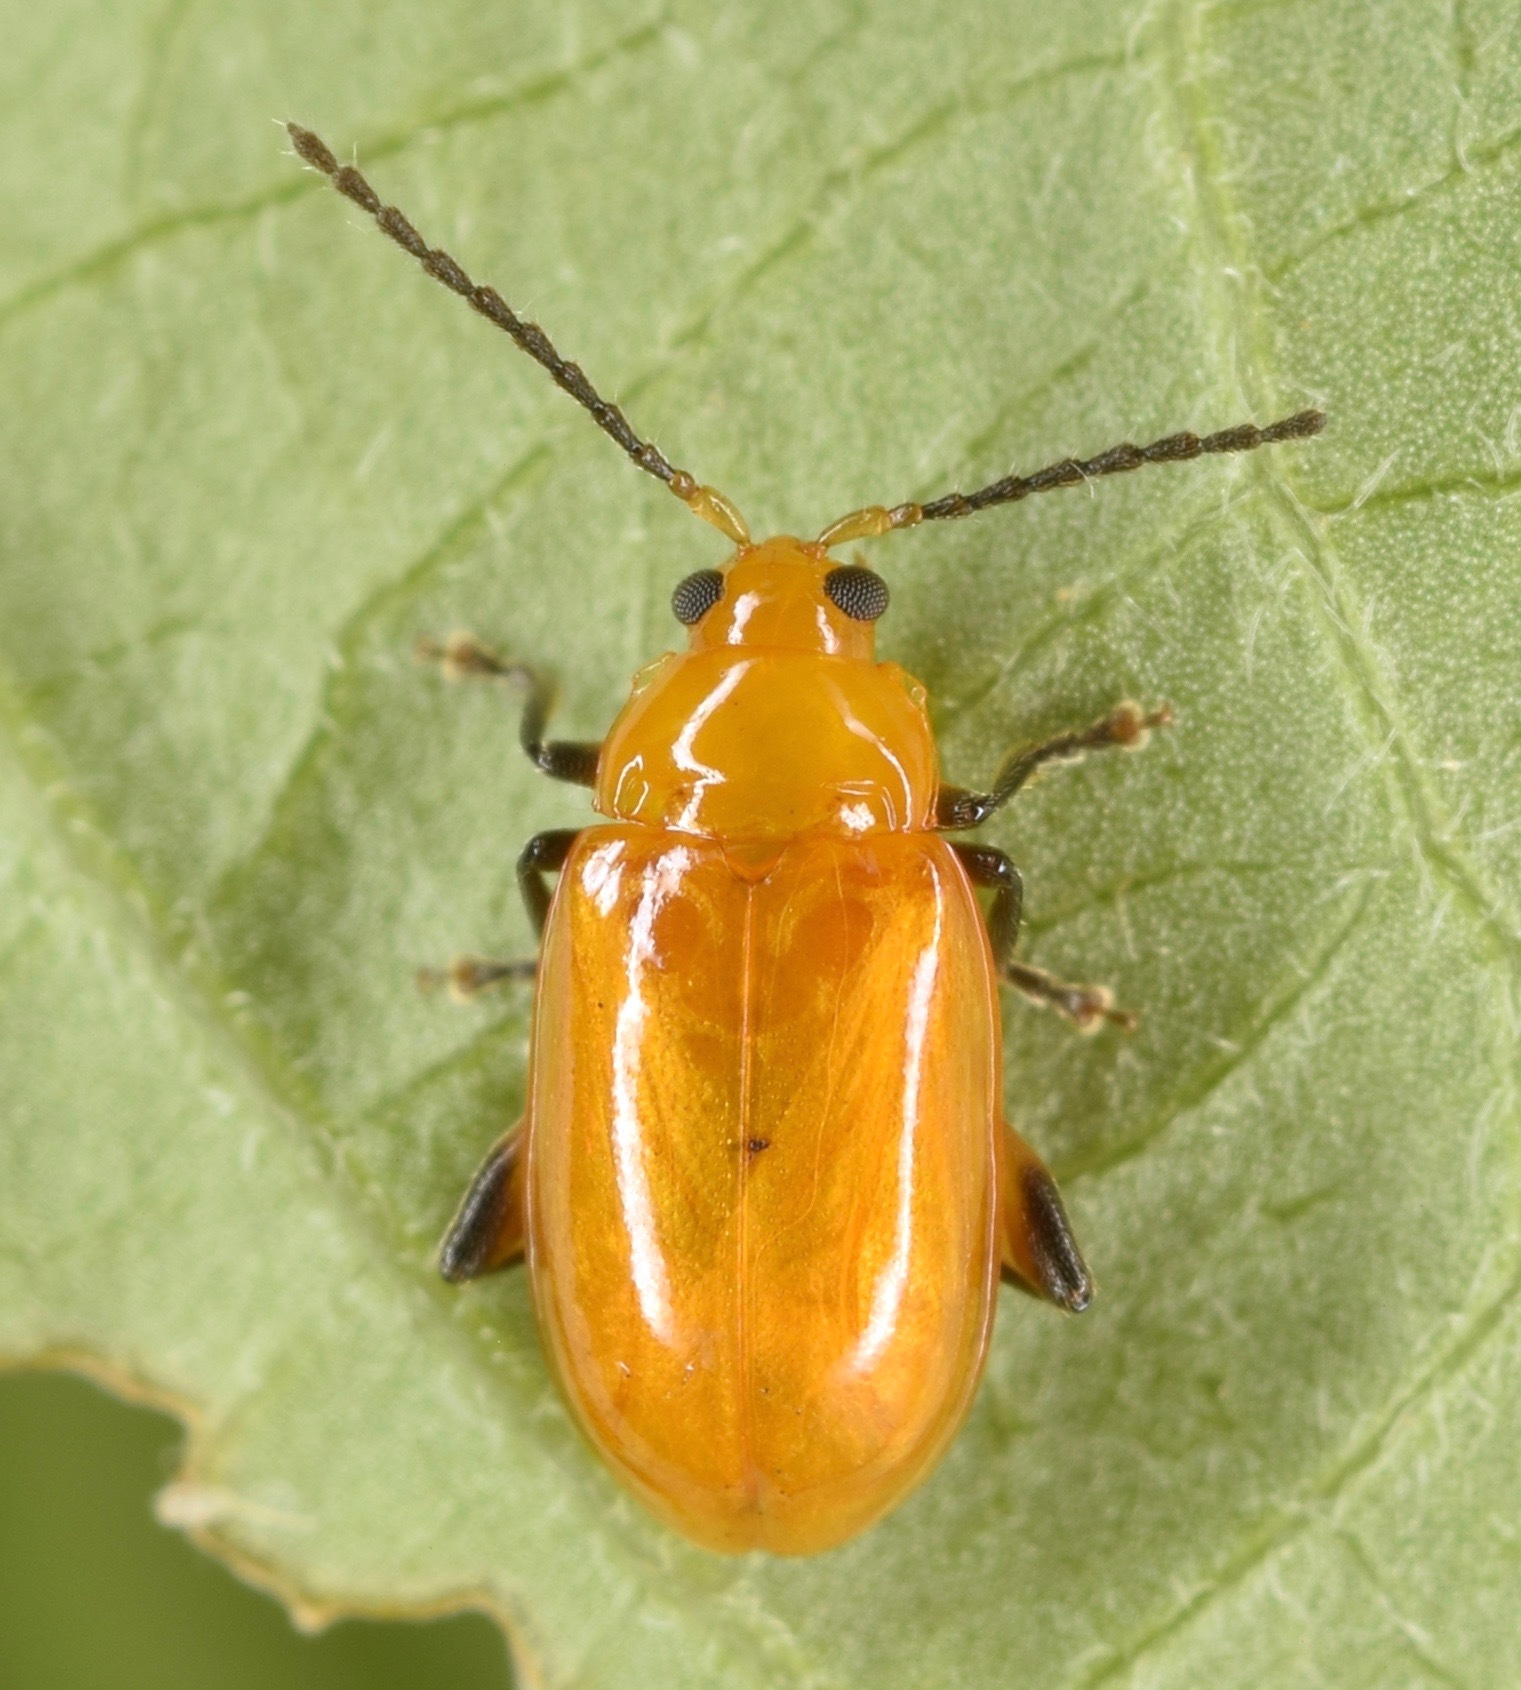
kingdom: Animalia
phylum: Arthropoda
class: Insecta
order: Coleoptera
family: Chrysomelidae
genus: Parchicola
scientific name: Parchicola tibialis
